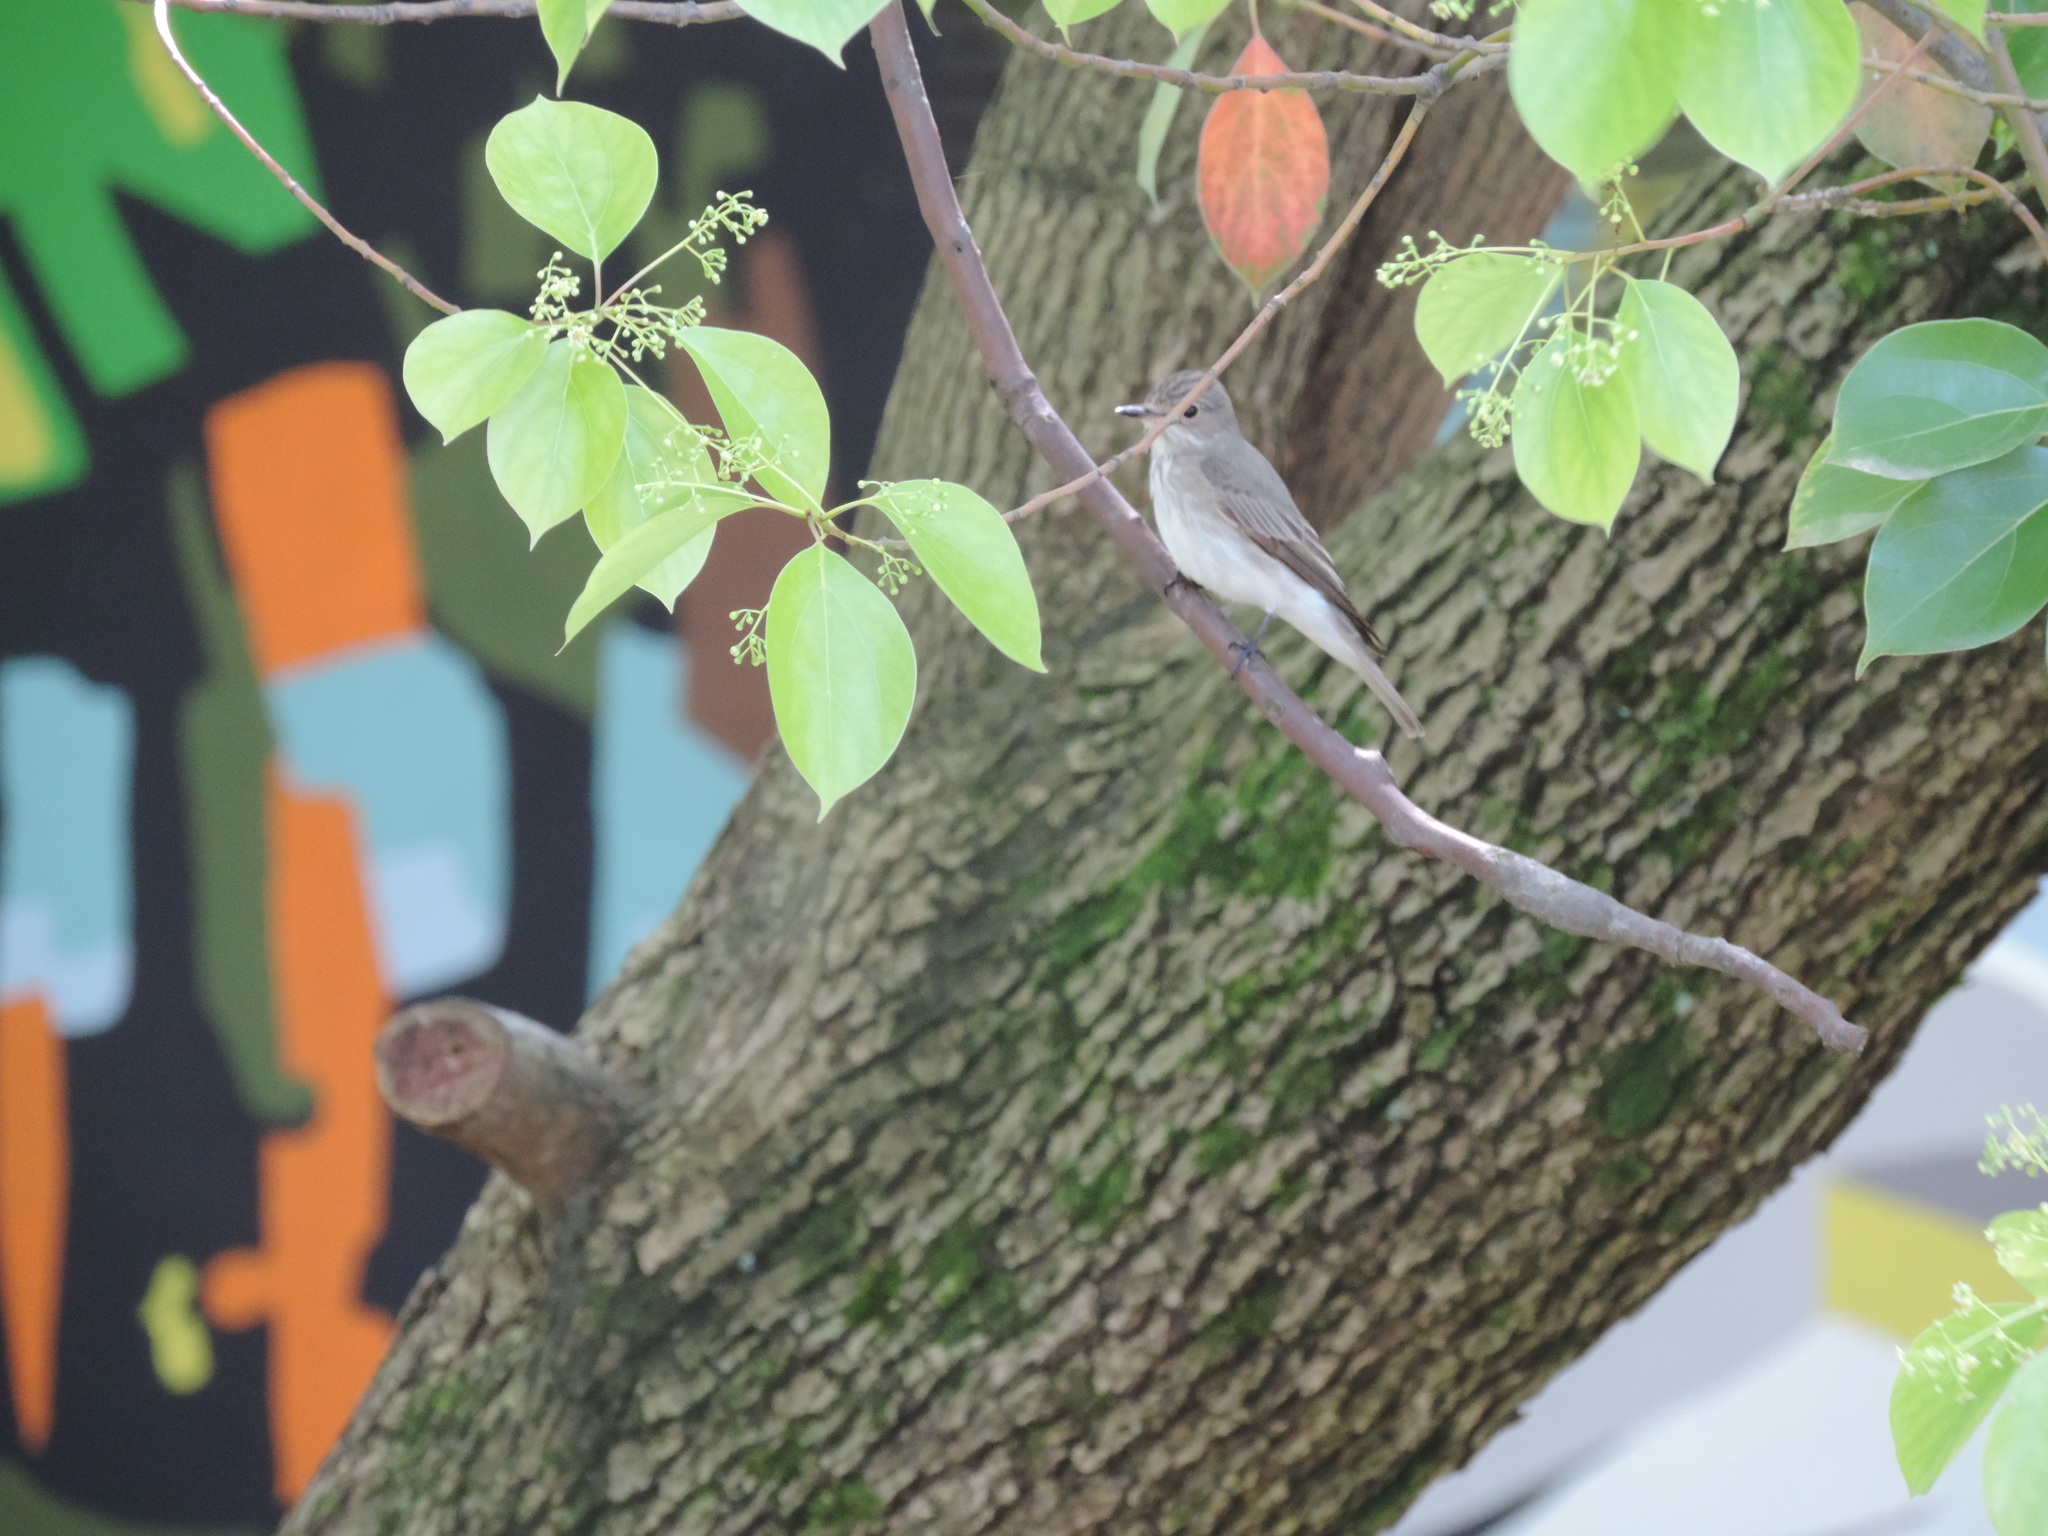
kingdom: Animalia
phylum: Chordata
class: Aves
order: Passeriformes
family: Muscicapidae
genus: Muscicapa
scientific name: Muscicapa striata
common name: Spotted flycatcher
